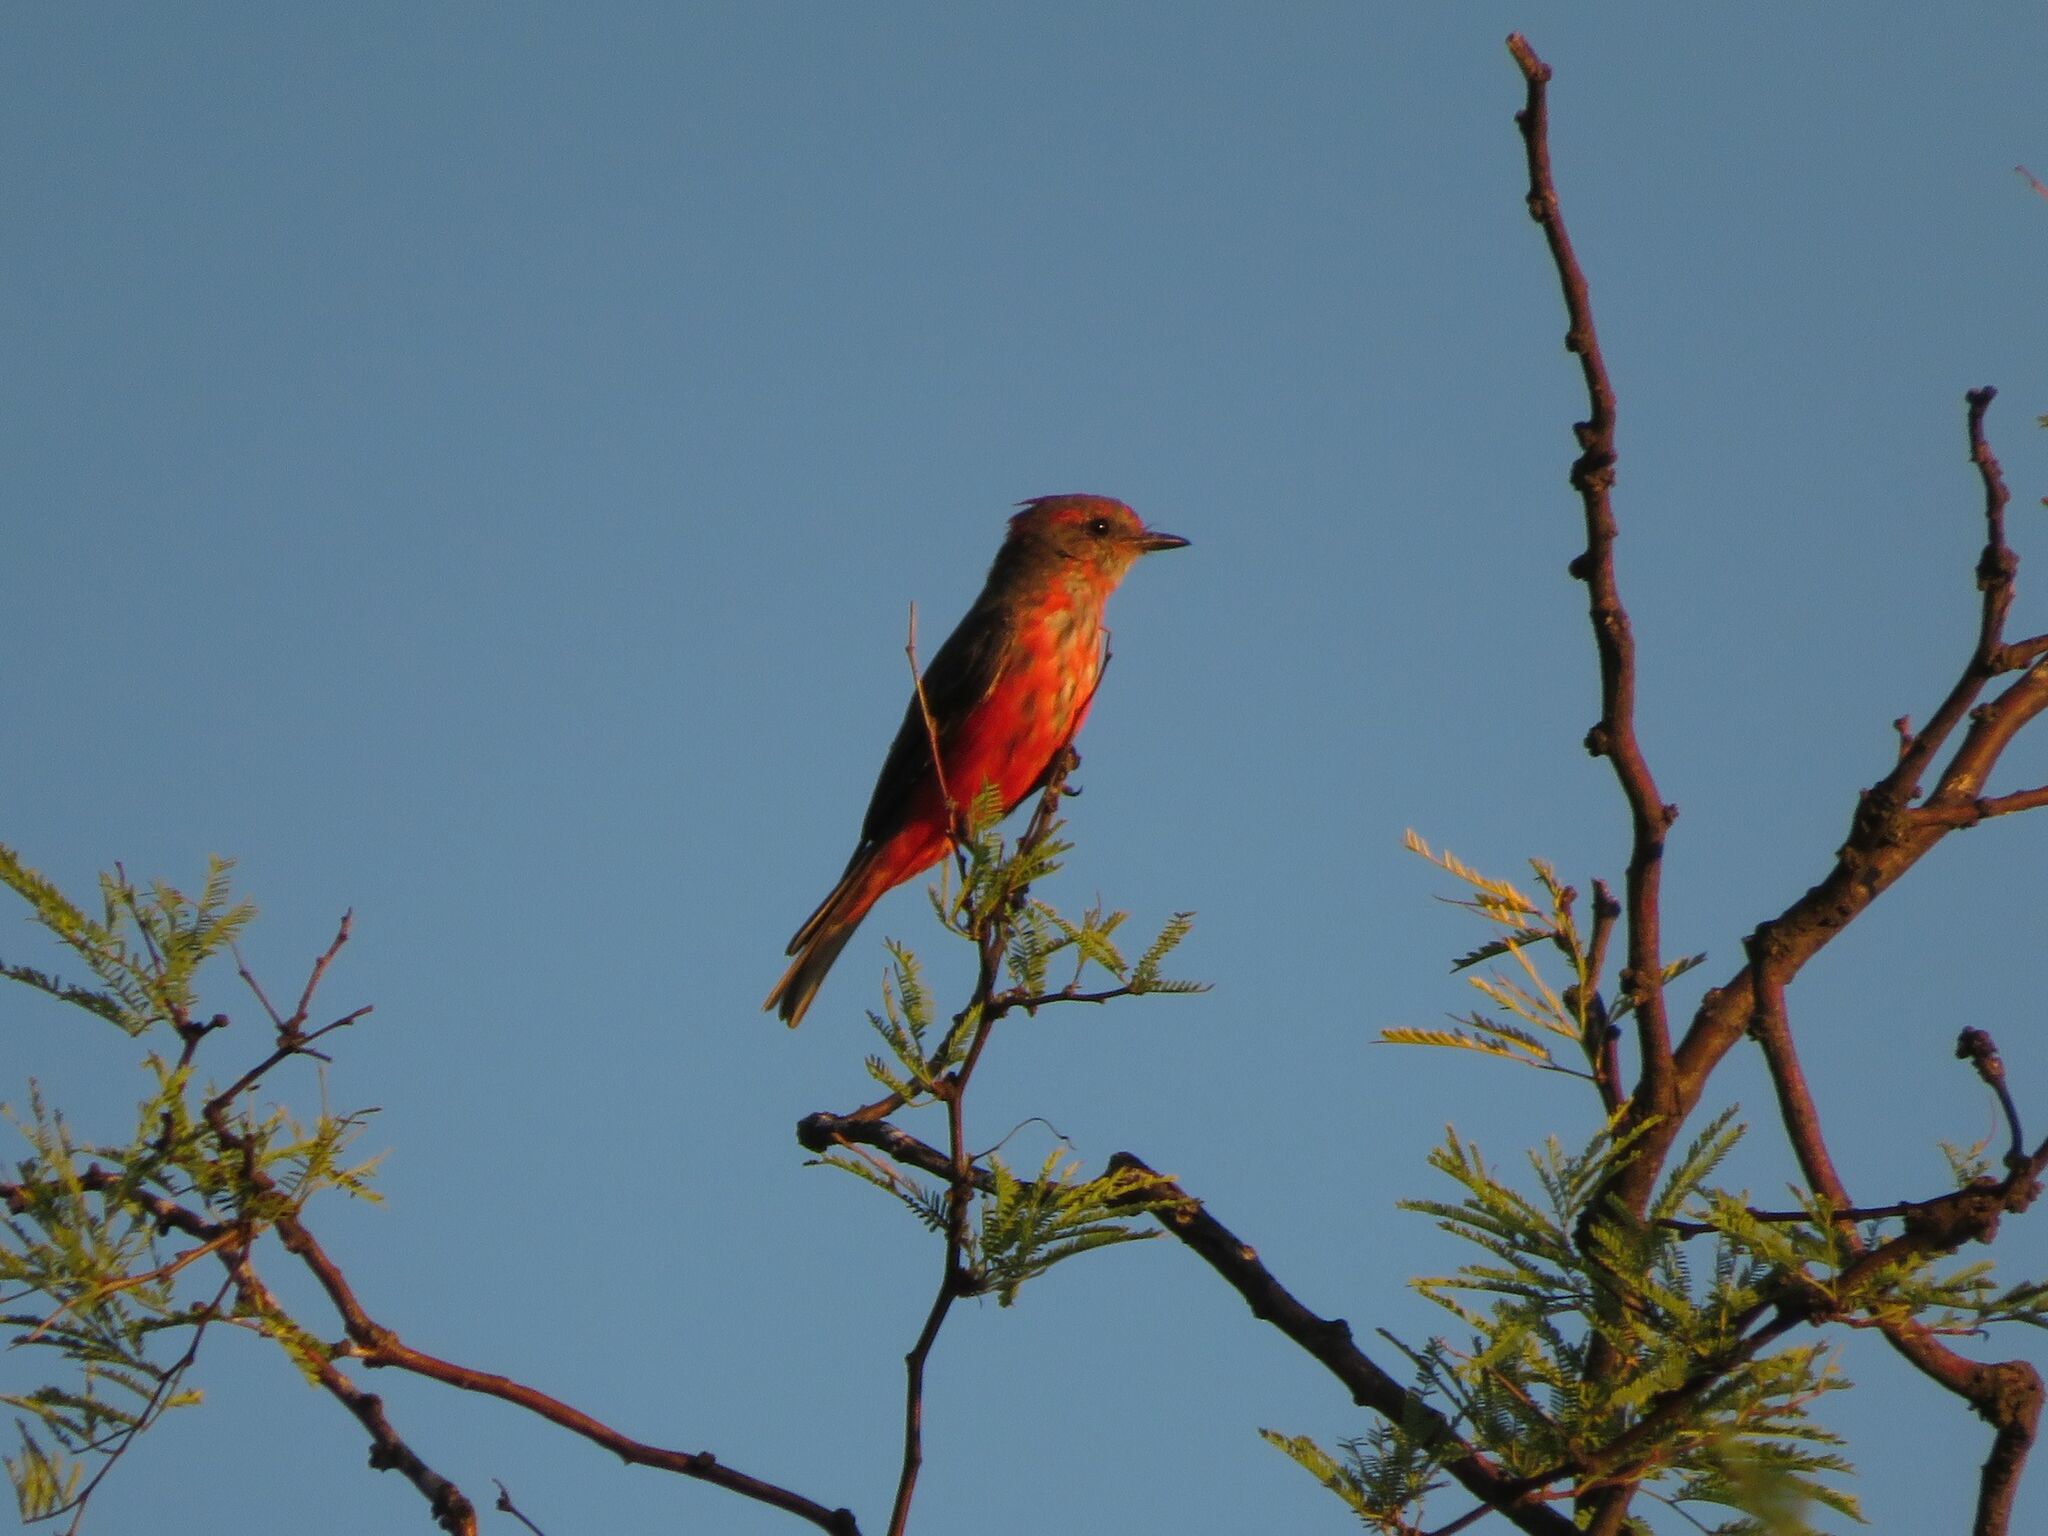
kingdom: Animalia
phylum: Chordata
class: Aves
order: Passeriformes
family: Tyrannidae
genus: Pyrocephalus
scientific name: Pyrocephalus rubinus
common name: Vermilion flycatcher
